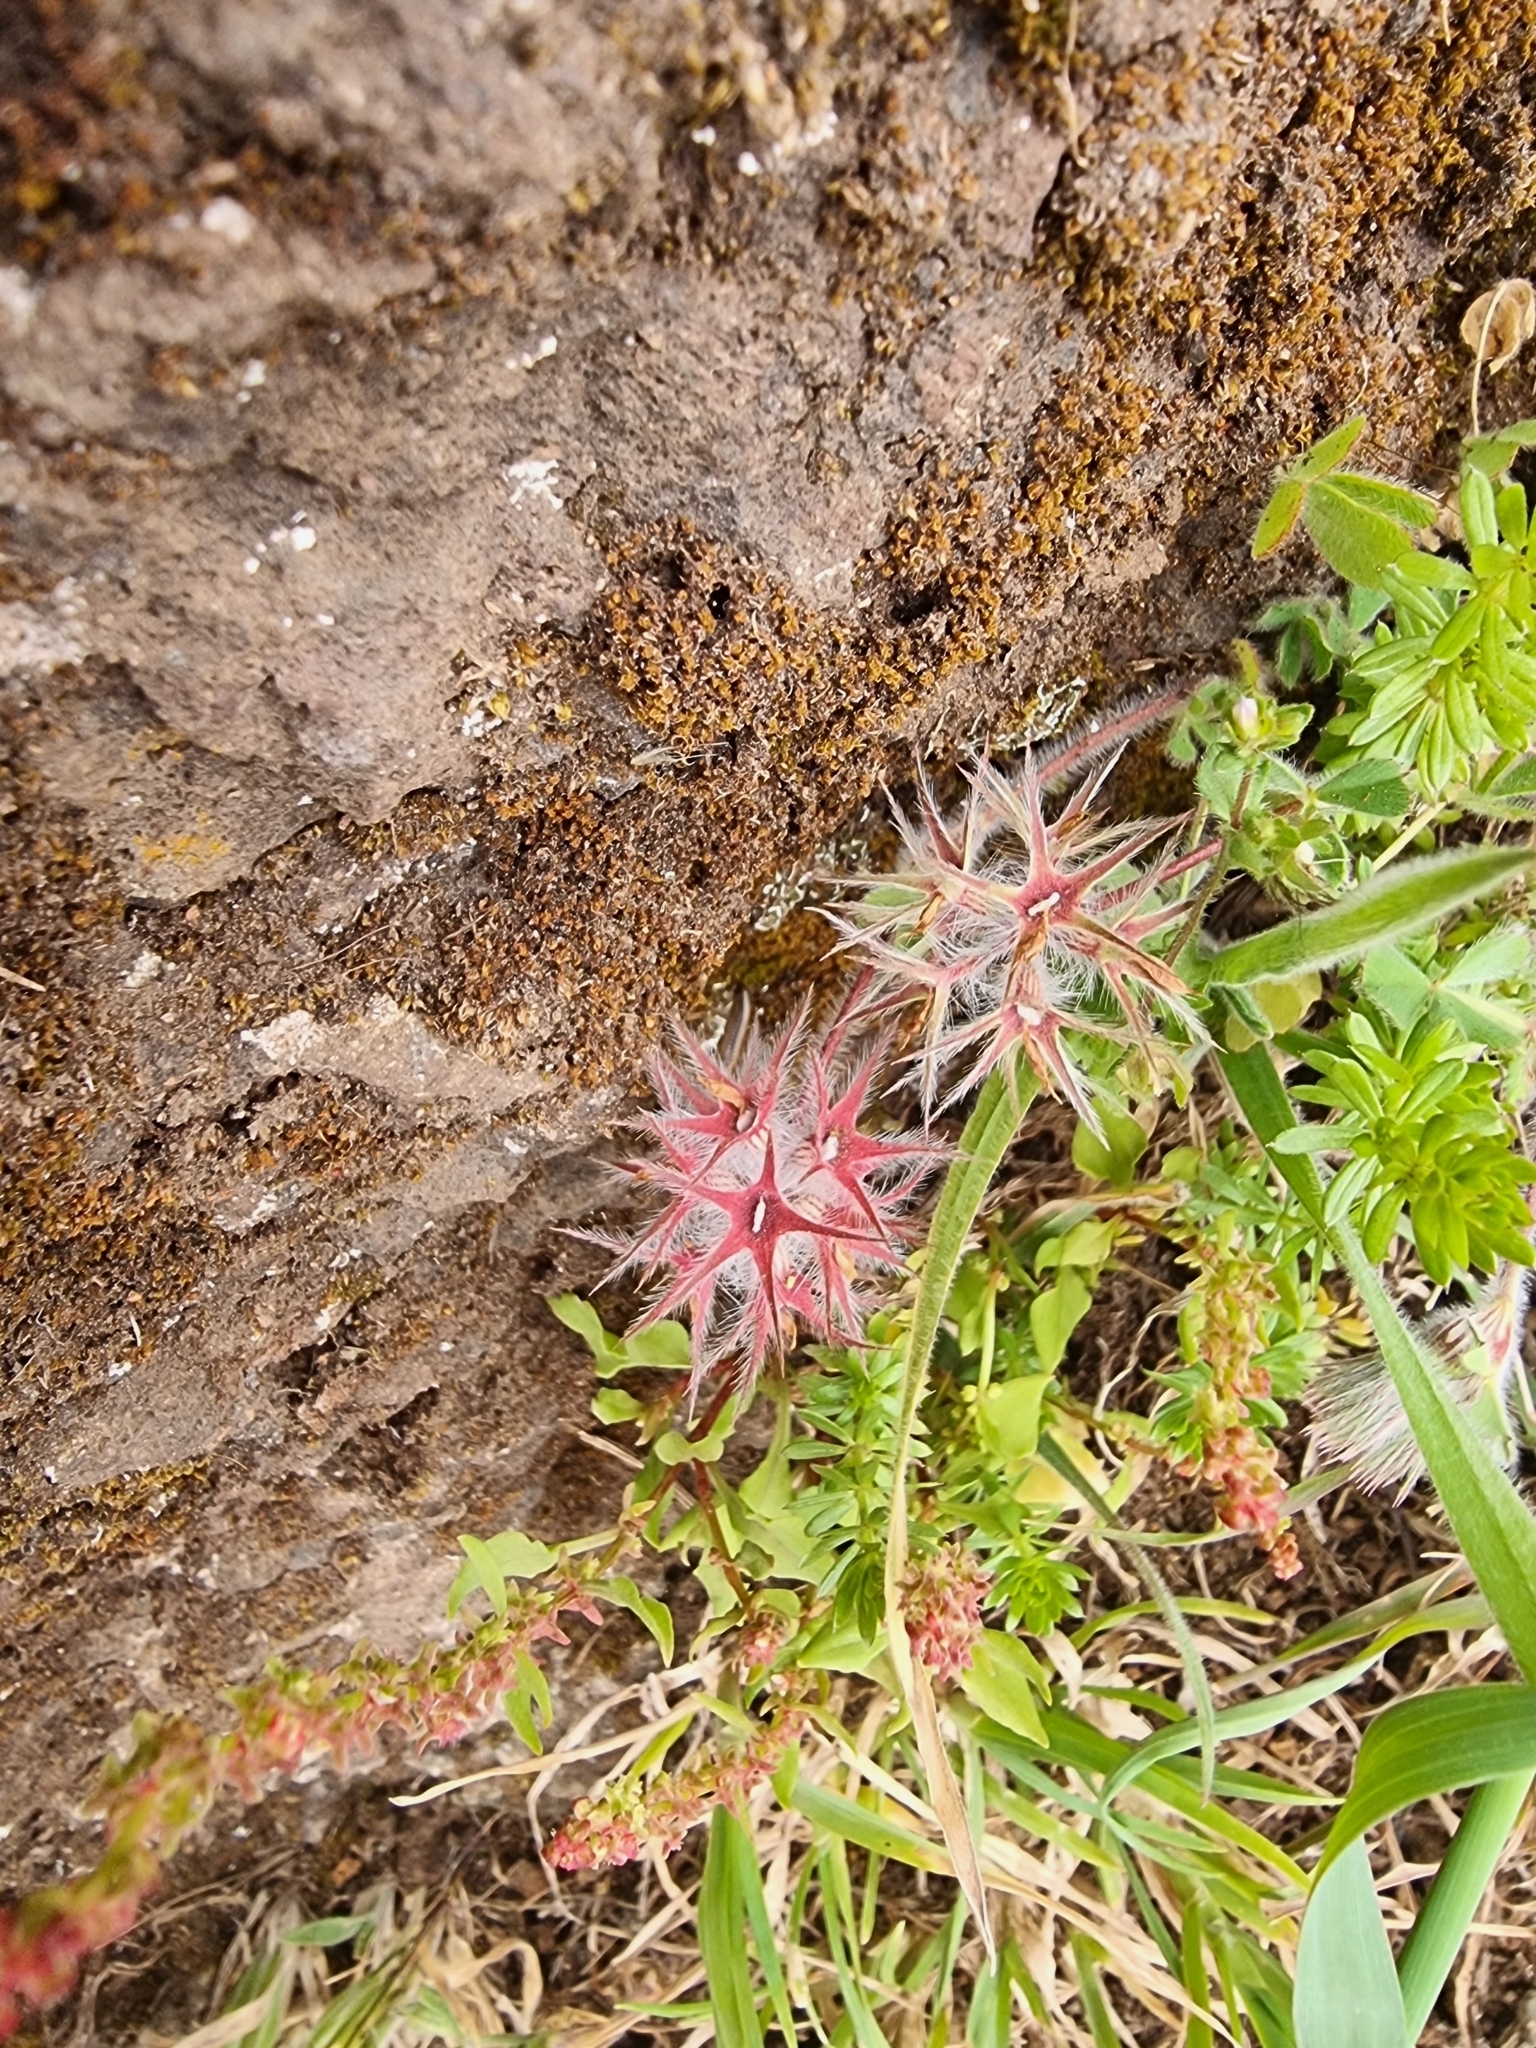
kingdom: Plantae
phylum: Tracheophyta
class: Magnoliopsida
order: Fabales
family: Fabaceae
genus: Trifolium
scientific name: Trifolium stellatum
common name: Starry clover
